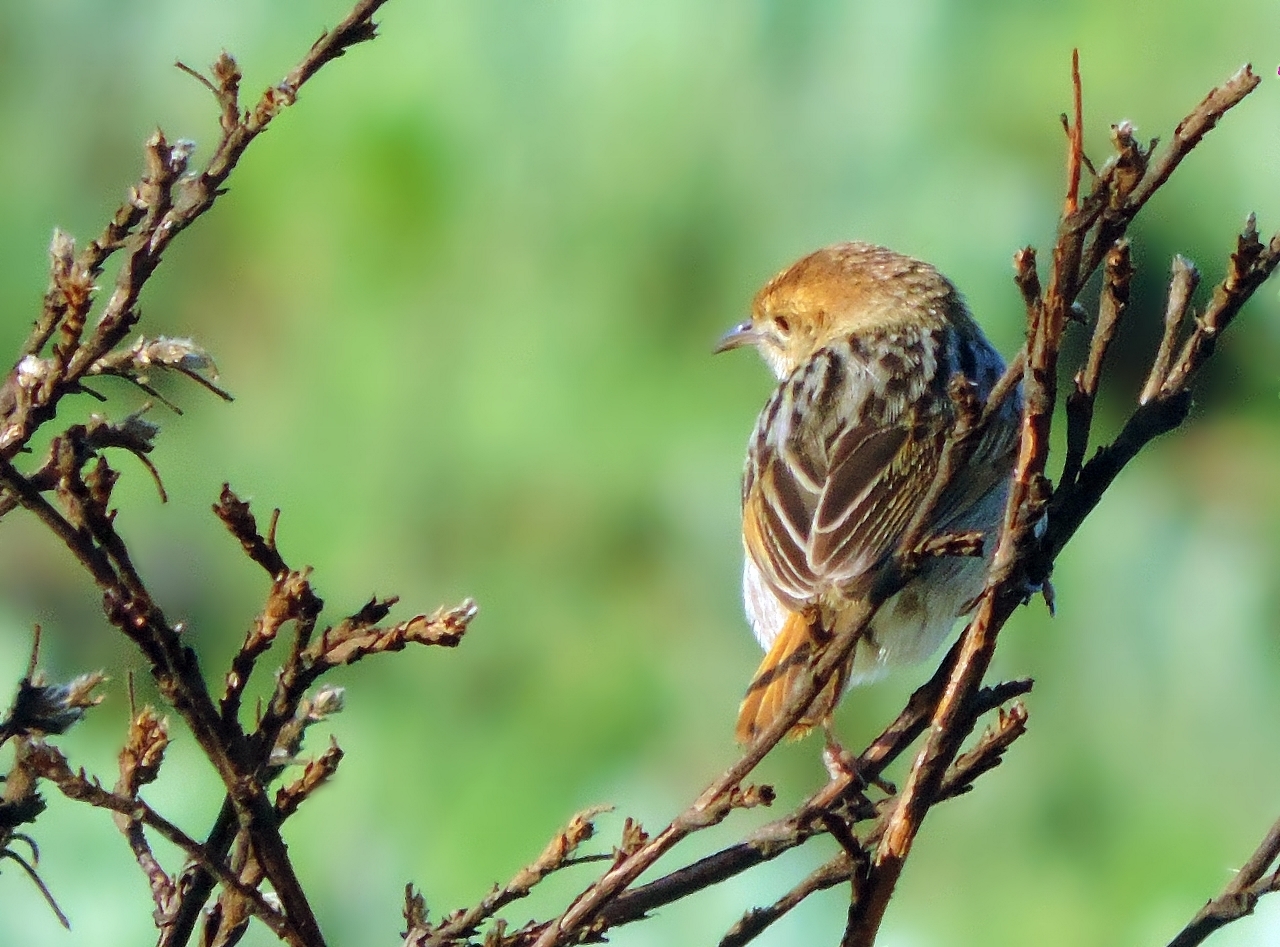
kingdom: Animalia
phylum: Chordata
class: Aves
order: Passeriformes
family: Cisticolidae
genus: Cisticola
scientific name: Cisticola lais
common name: Wailing cisticola
